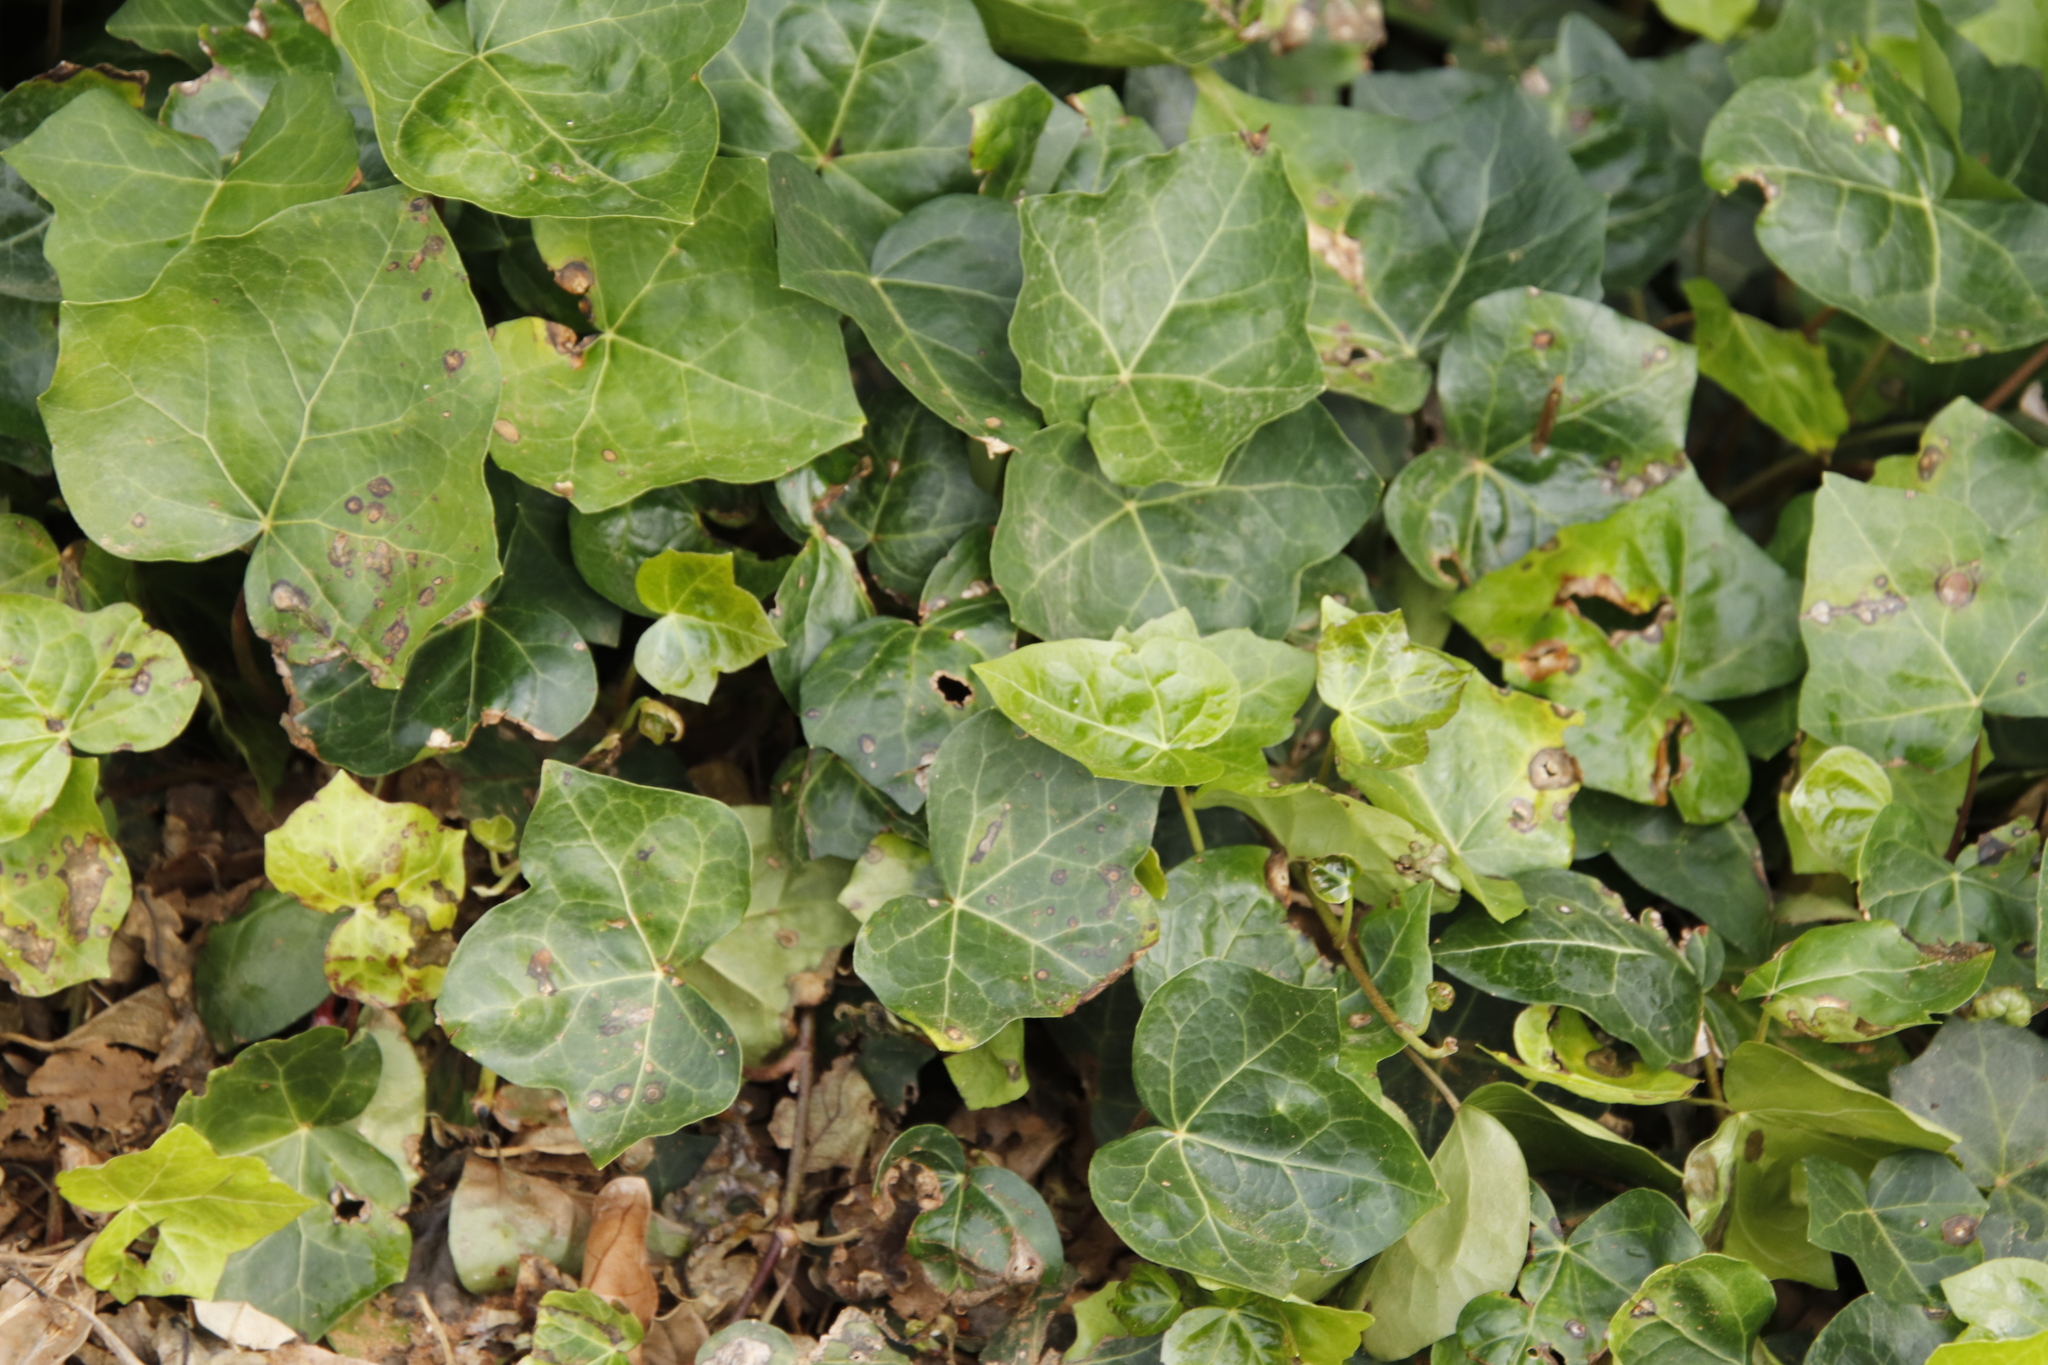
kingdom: Plantae
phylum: Tracheophyta
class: Magnoliopsida
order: Apiales
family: Araliaceae
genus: Hedera
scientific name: Hedera canariensis
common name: Madeira ivy
